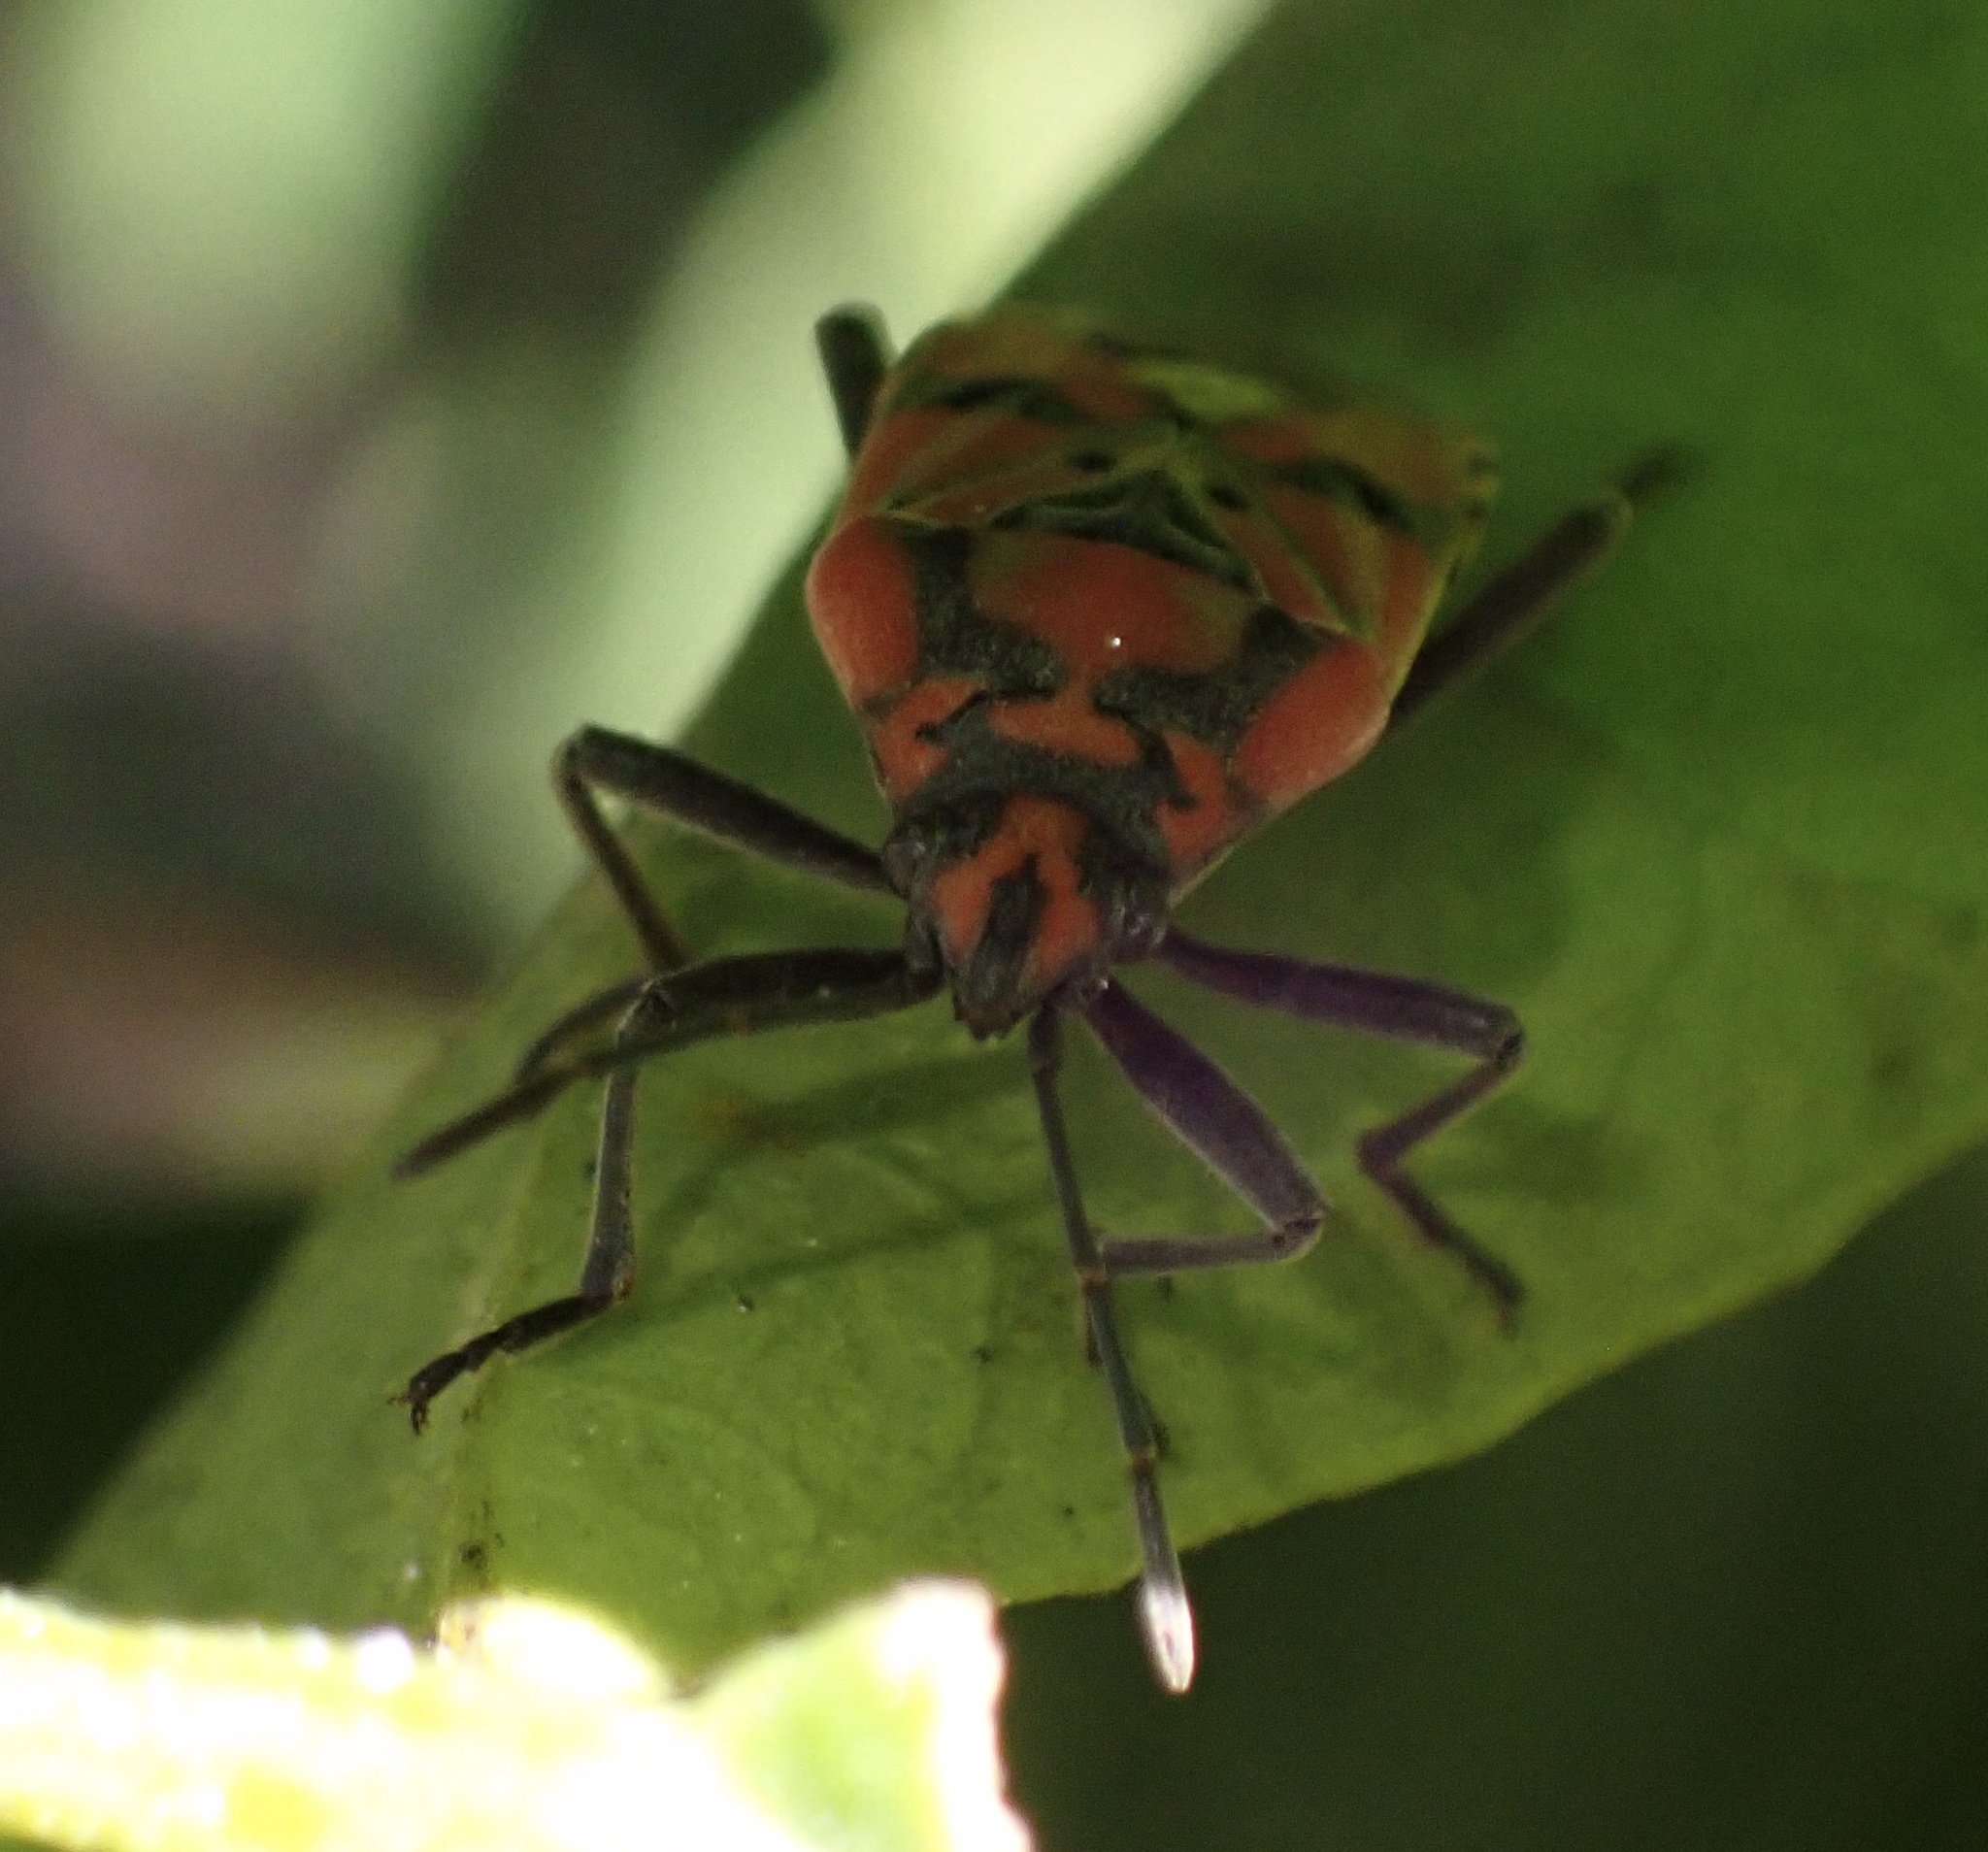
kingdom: Animalia
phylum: Arthropoda
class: Insecta
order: Hemiptera
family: Lygaeidae
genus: Spilostethus
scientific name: Spilostethus pandurus
